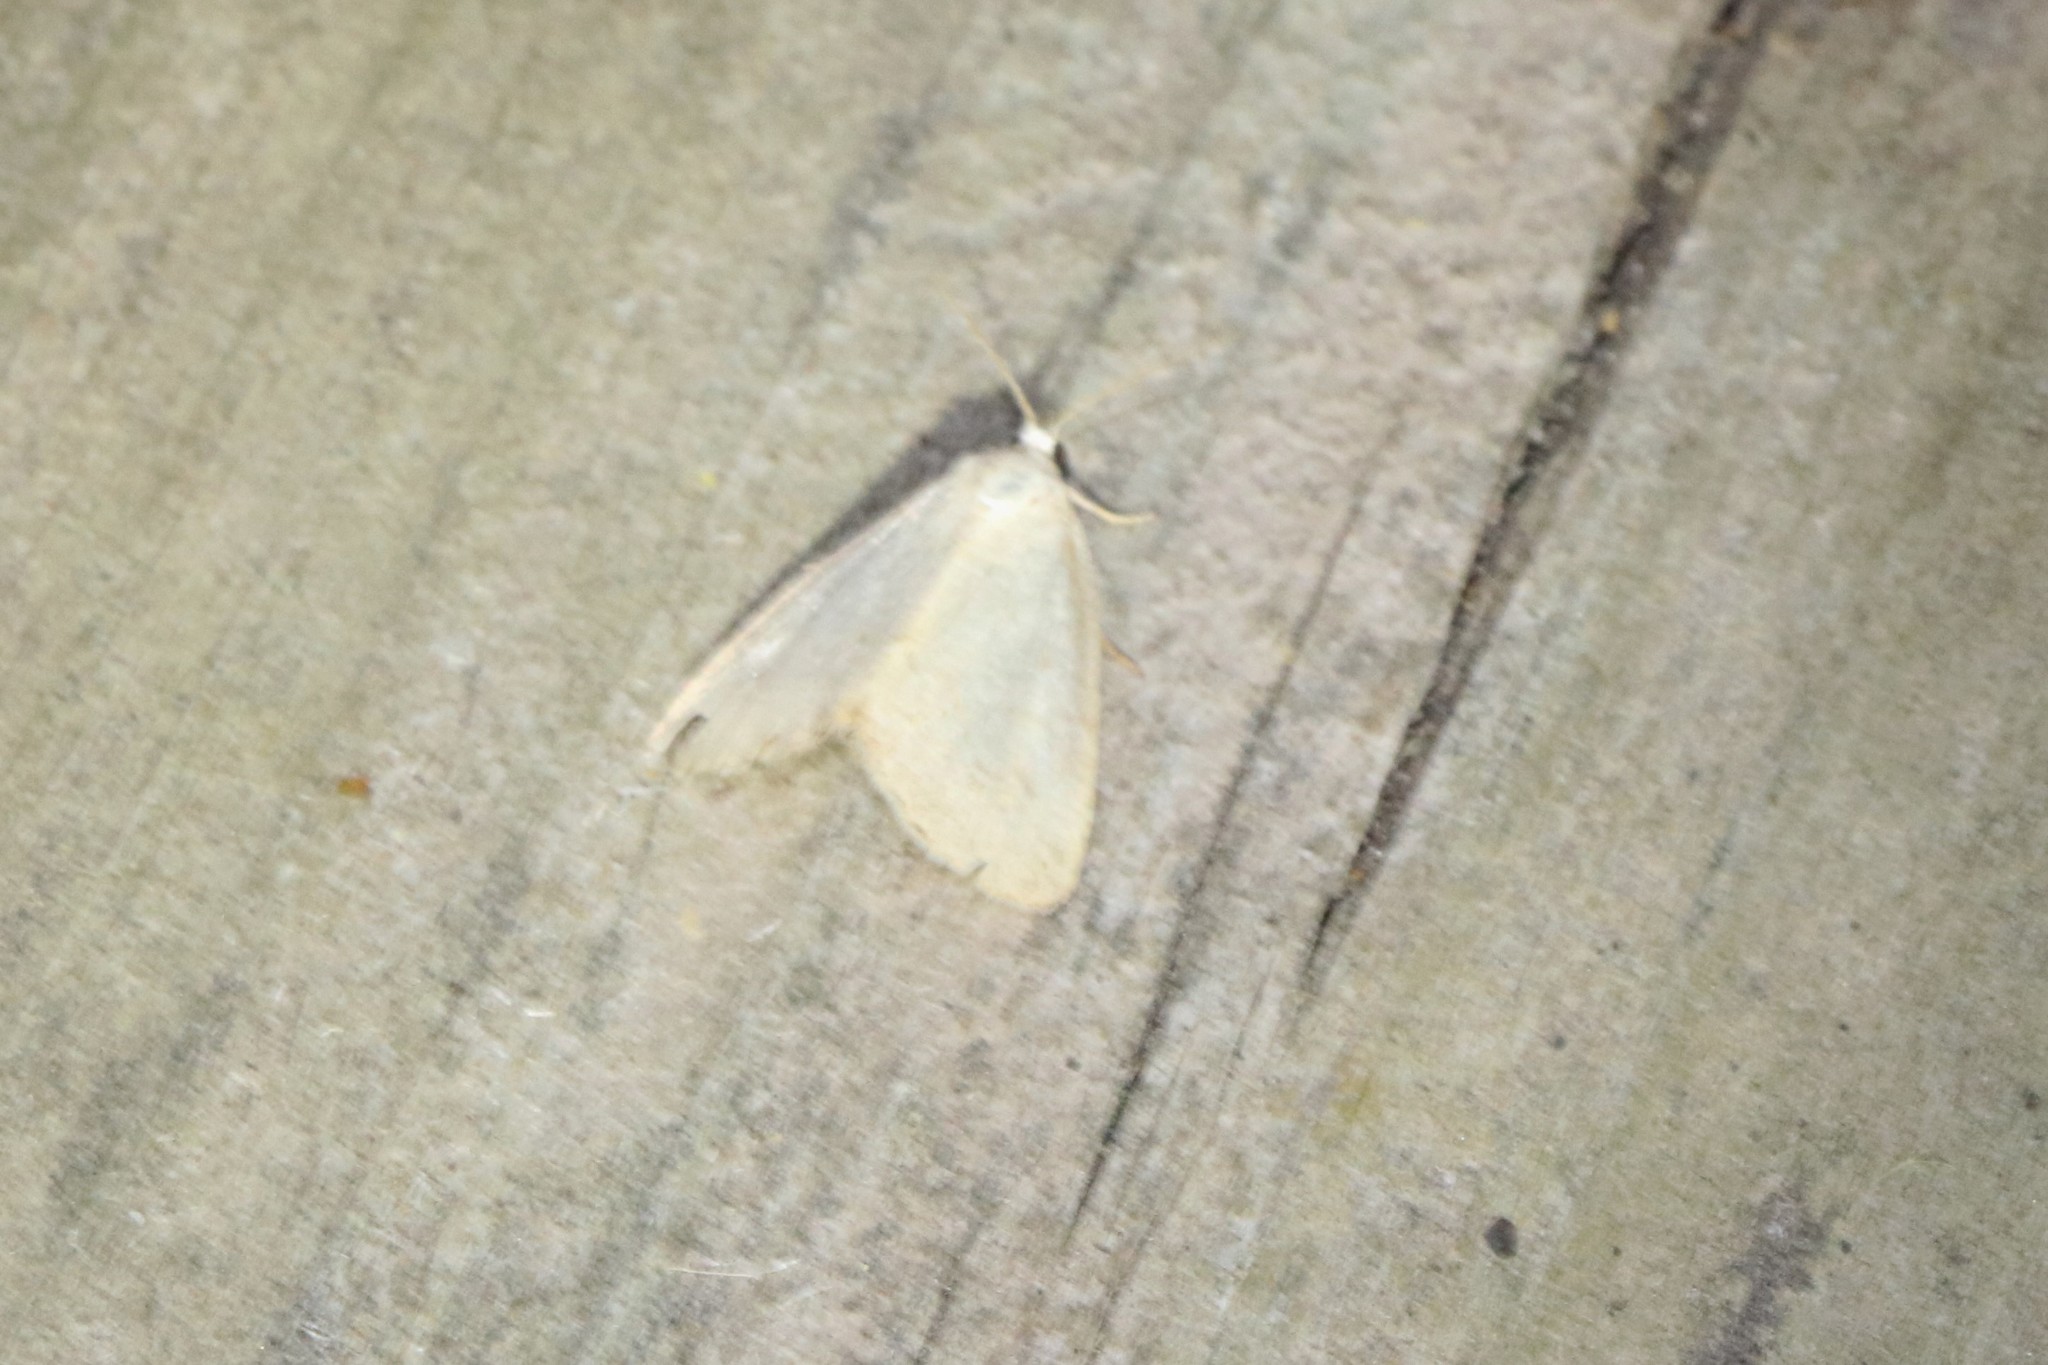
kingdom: Animalia
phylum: Arthropoda
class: Insecta
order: Lepidoptera
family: Noctuidae
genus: Protodeltote
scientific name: Protodeltote albidula
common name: Pale glyph
